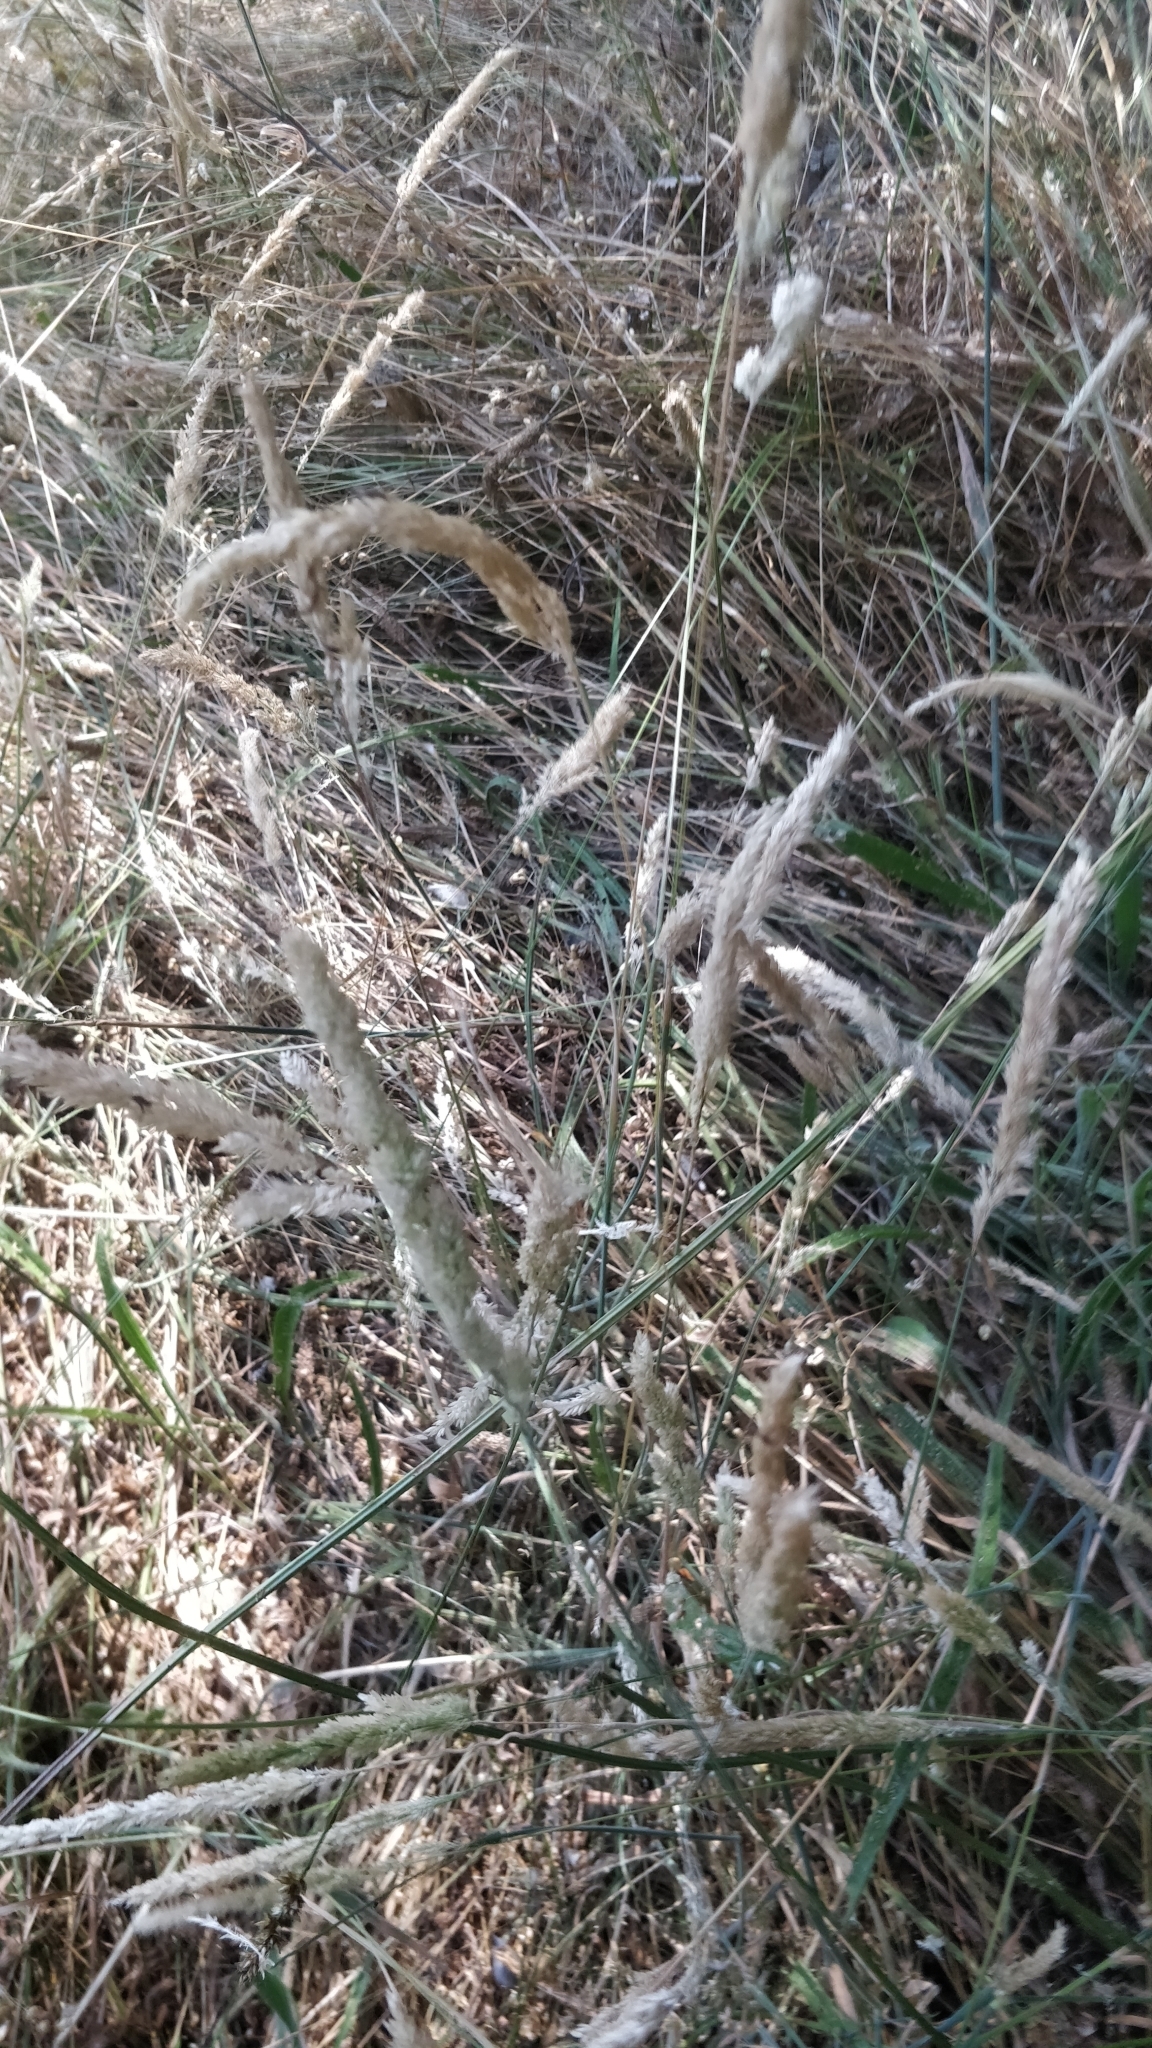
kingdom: Plantae
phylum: Tracheophyta
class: Liliopsida
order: Poales
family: Poaceae
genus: Holcus
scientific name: Holcus lanatus
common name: Yorkshire-fog
